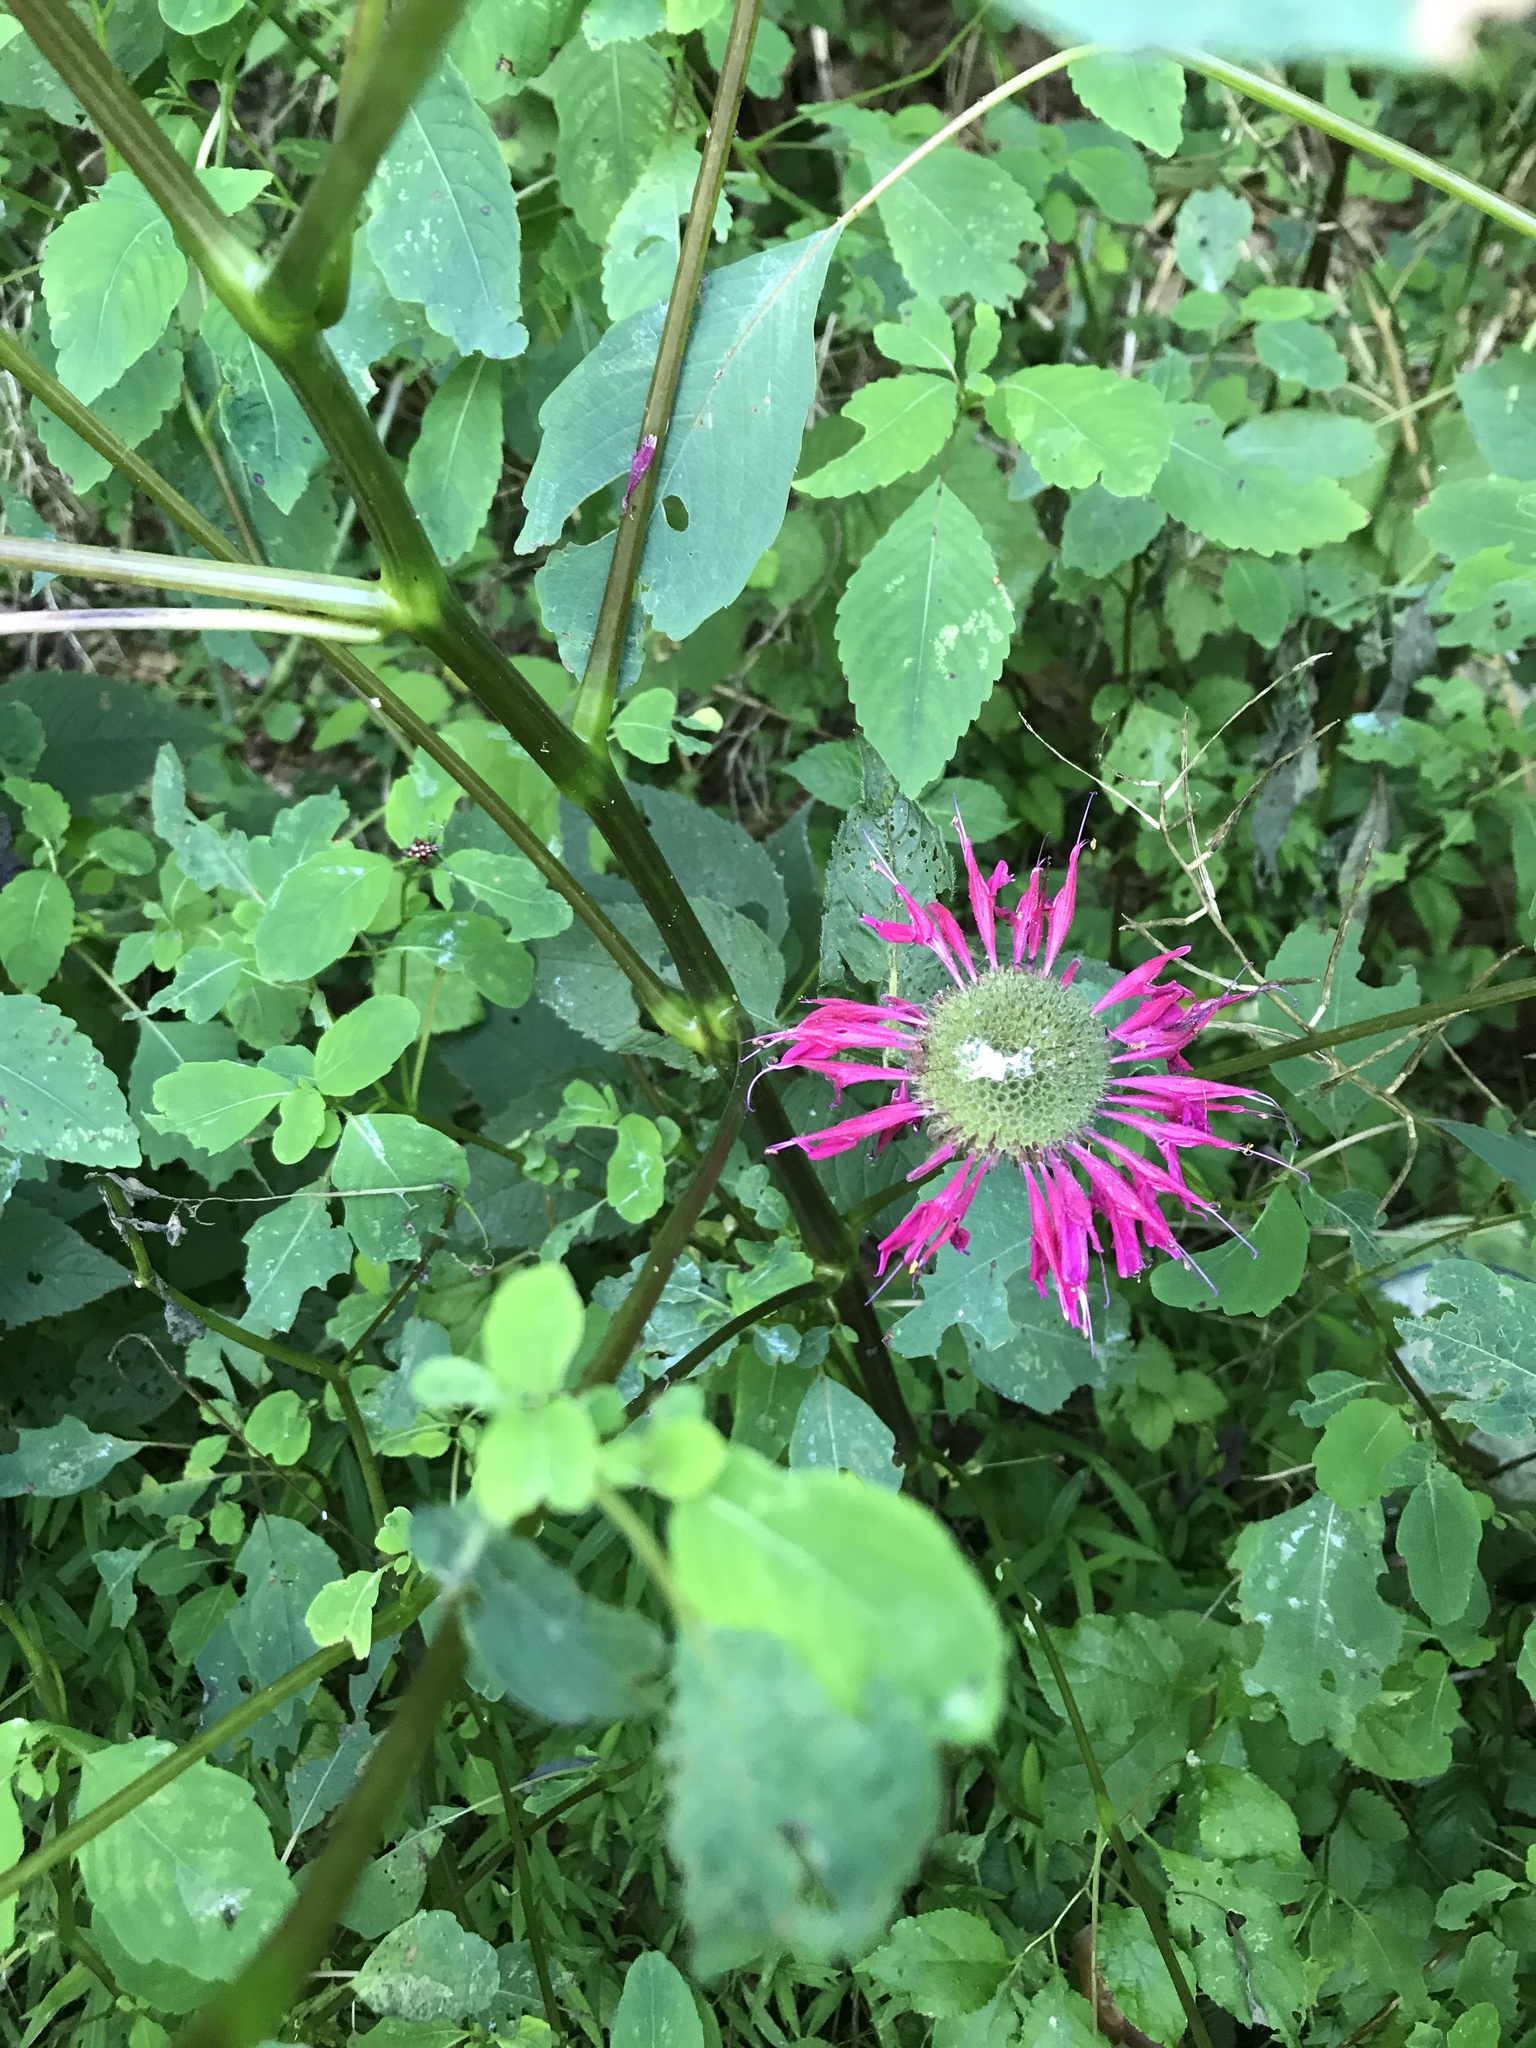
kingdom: Plantae
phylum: Tracheophyta
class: Magnoliopsida
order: Lamiales
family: Lamiaceae
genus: Monarda
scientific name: Monarda didyma
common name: Beebalm
